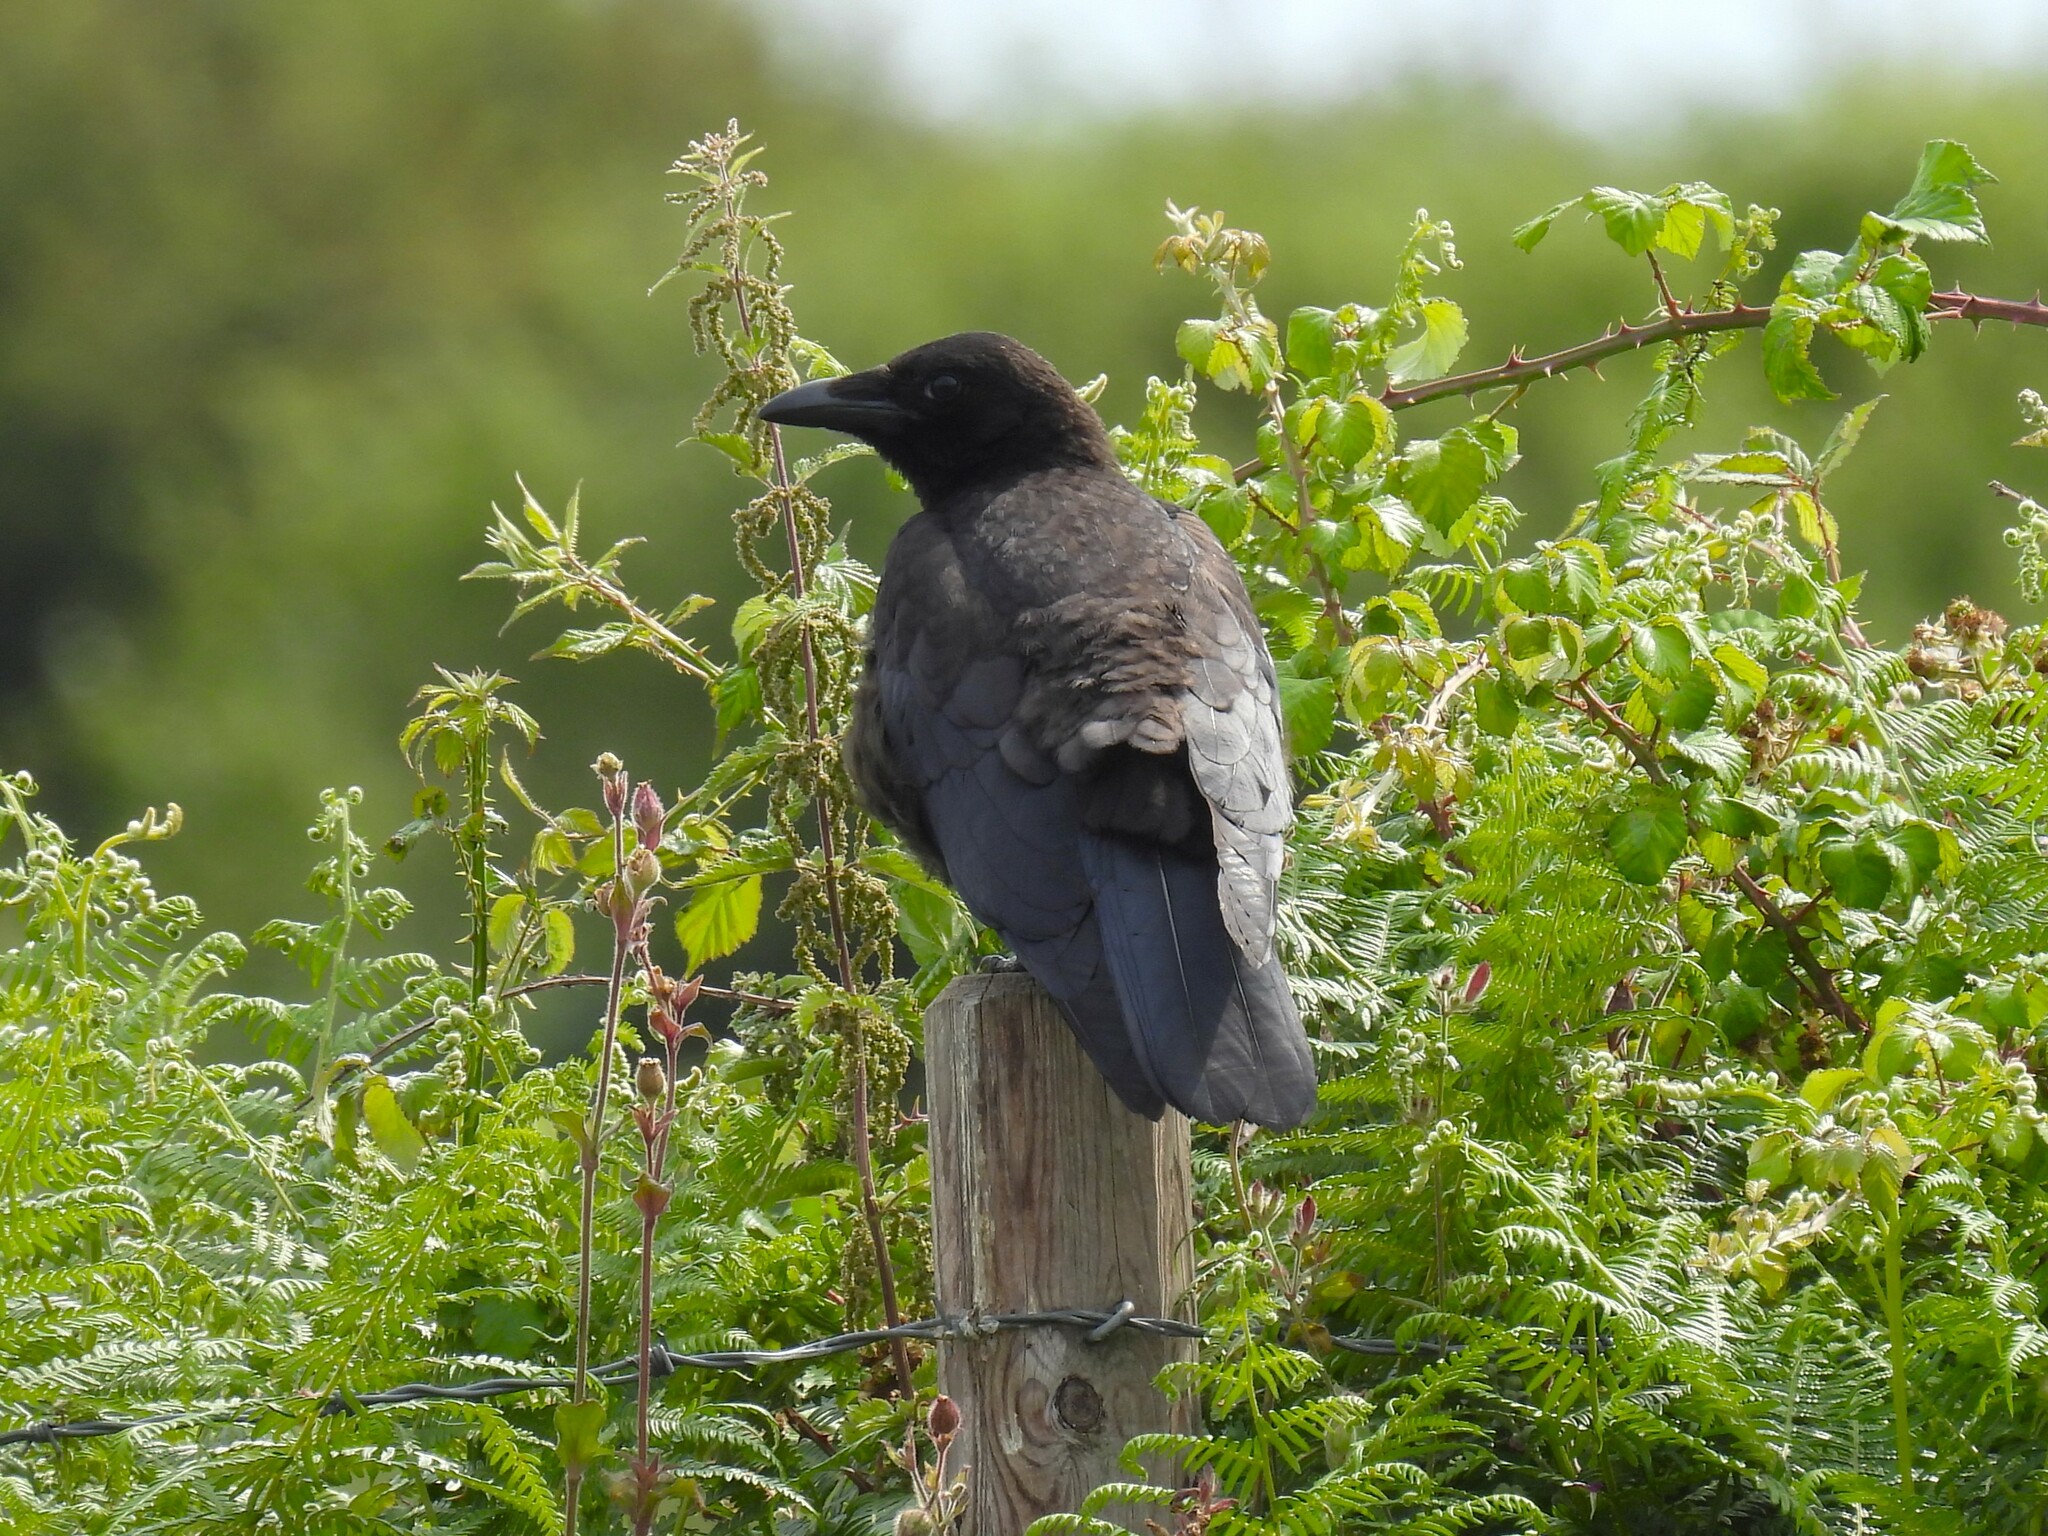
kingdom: Animalia
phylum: Chordata
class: Aves
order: Passeriformes
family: Corvidae
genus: Corvus
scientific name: Corvus corone
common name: Carrion crow
